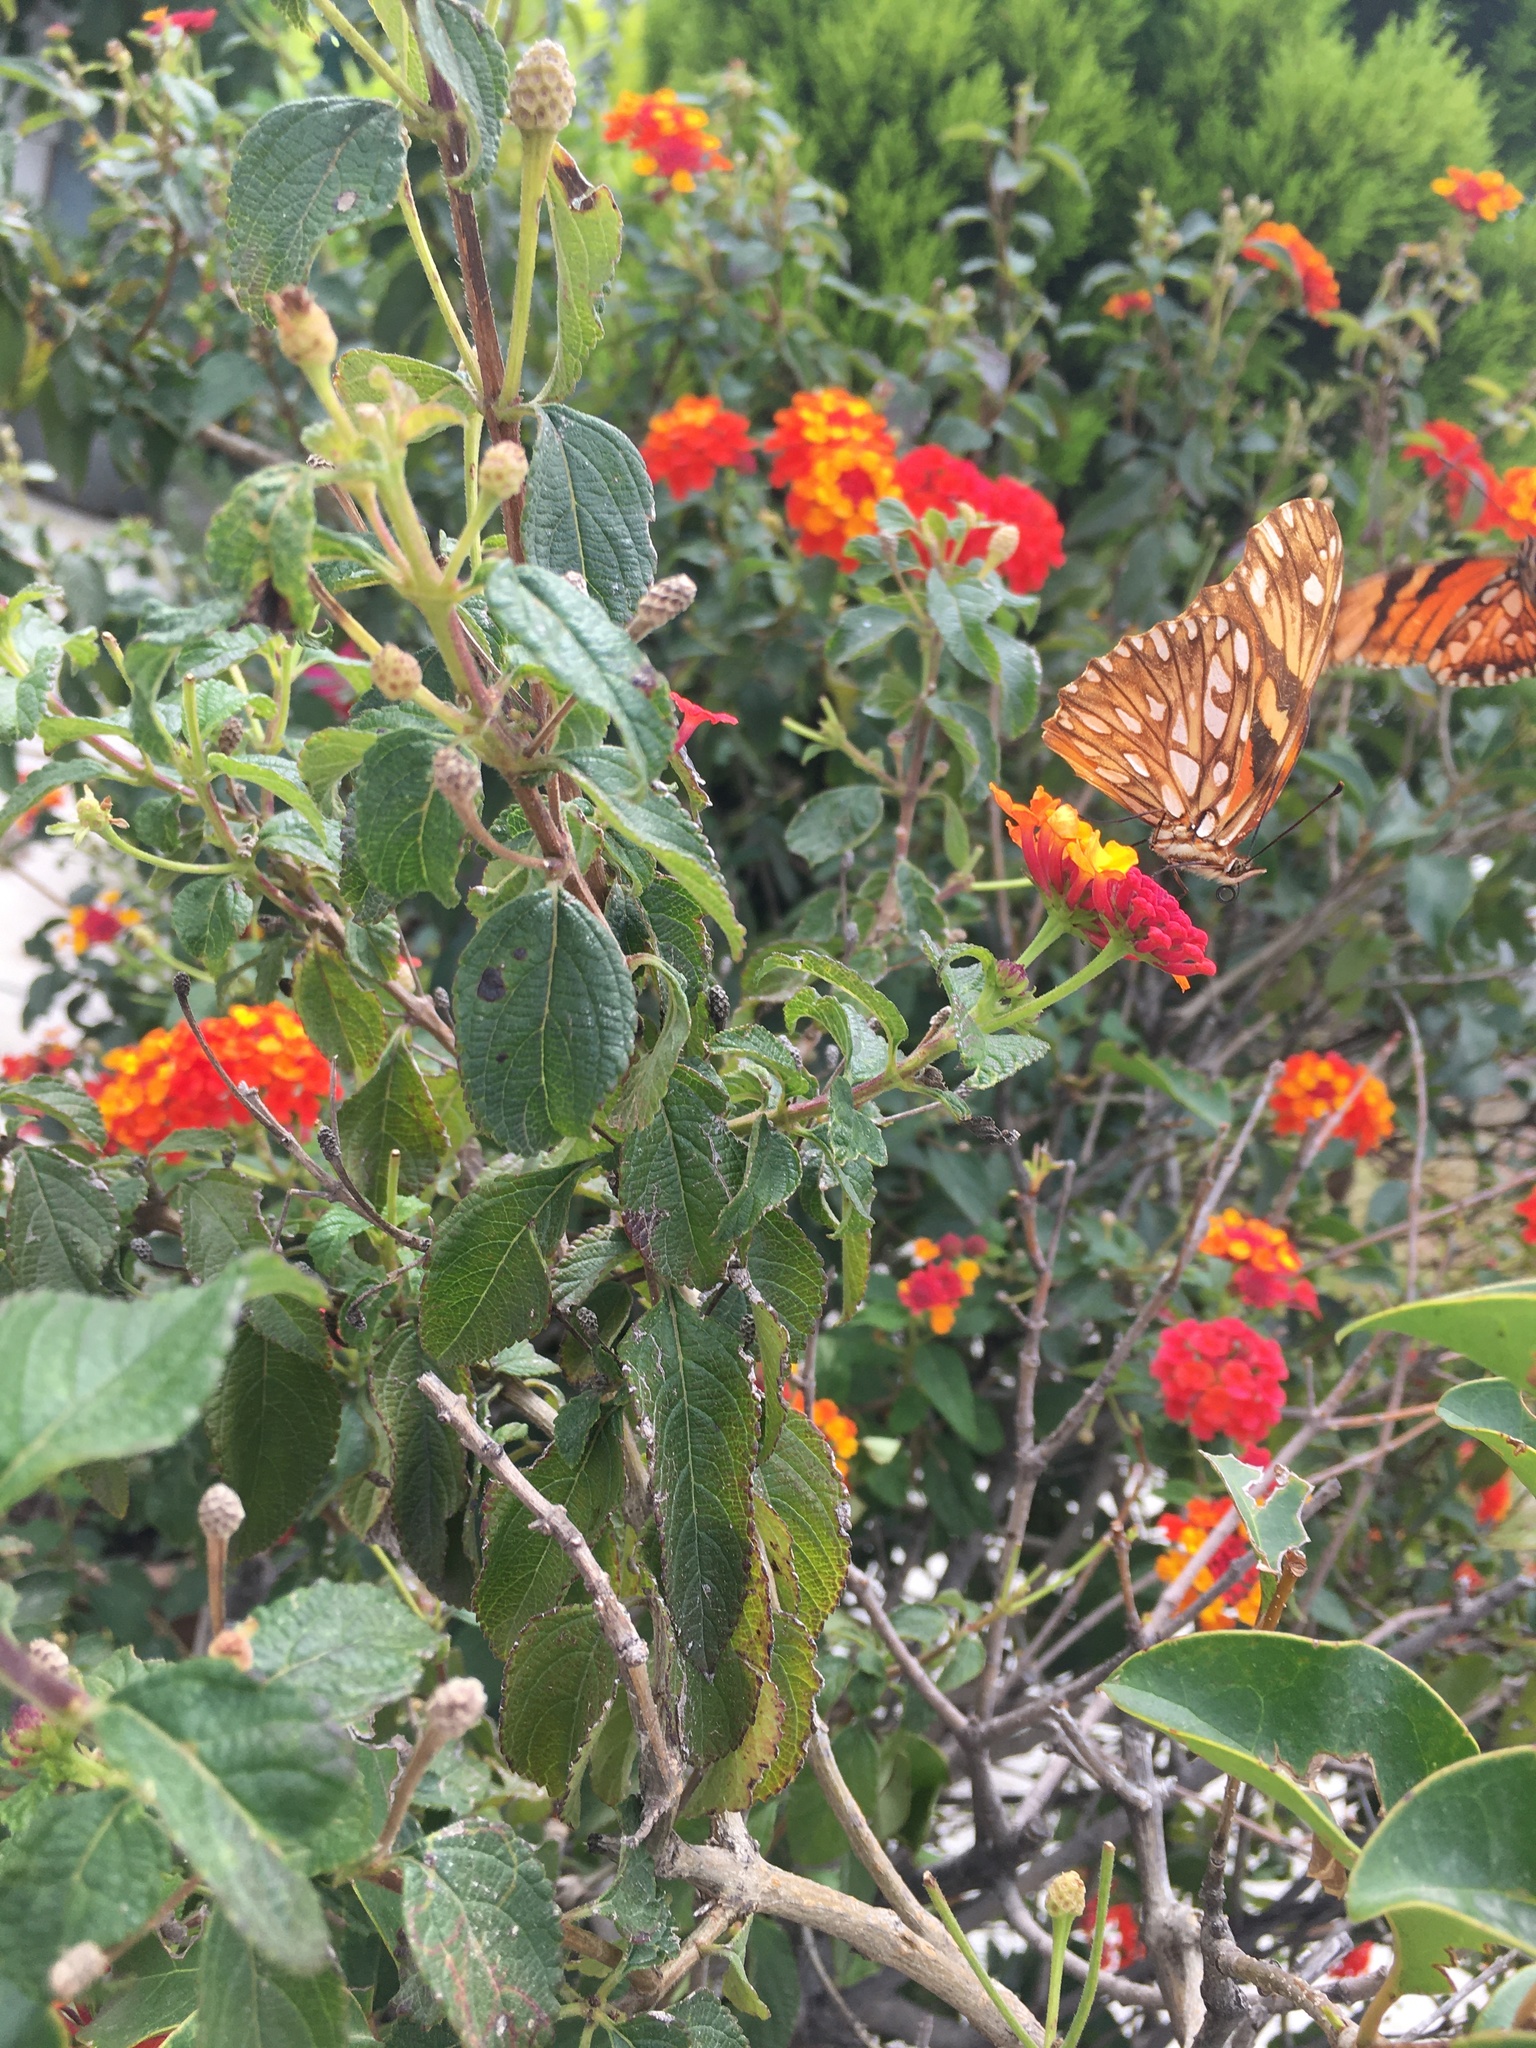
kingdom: Animalia
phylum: Arthropoda
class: Insecta
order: Lepidoptera
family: Nymphalidae
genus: Dione
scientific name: Dione juno
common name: Juno silverspot
